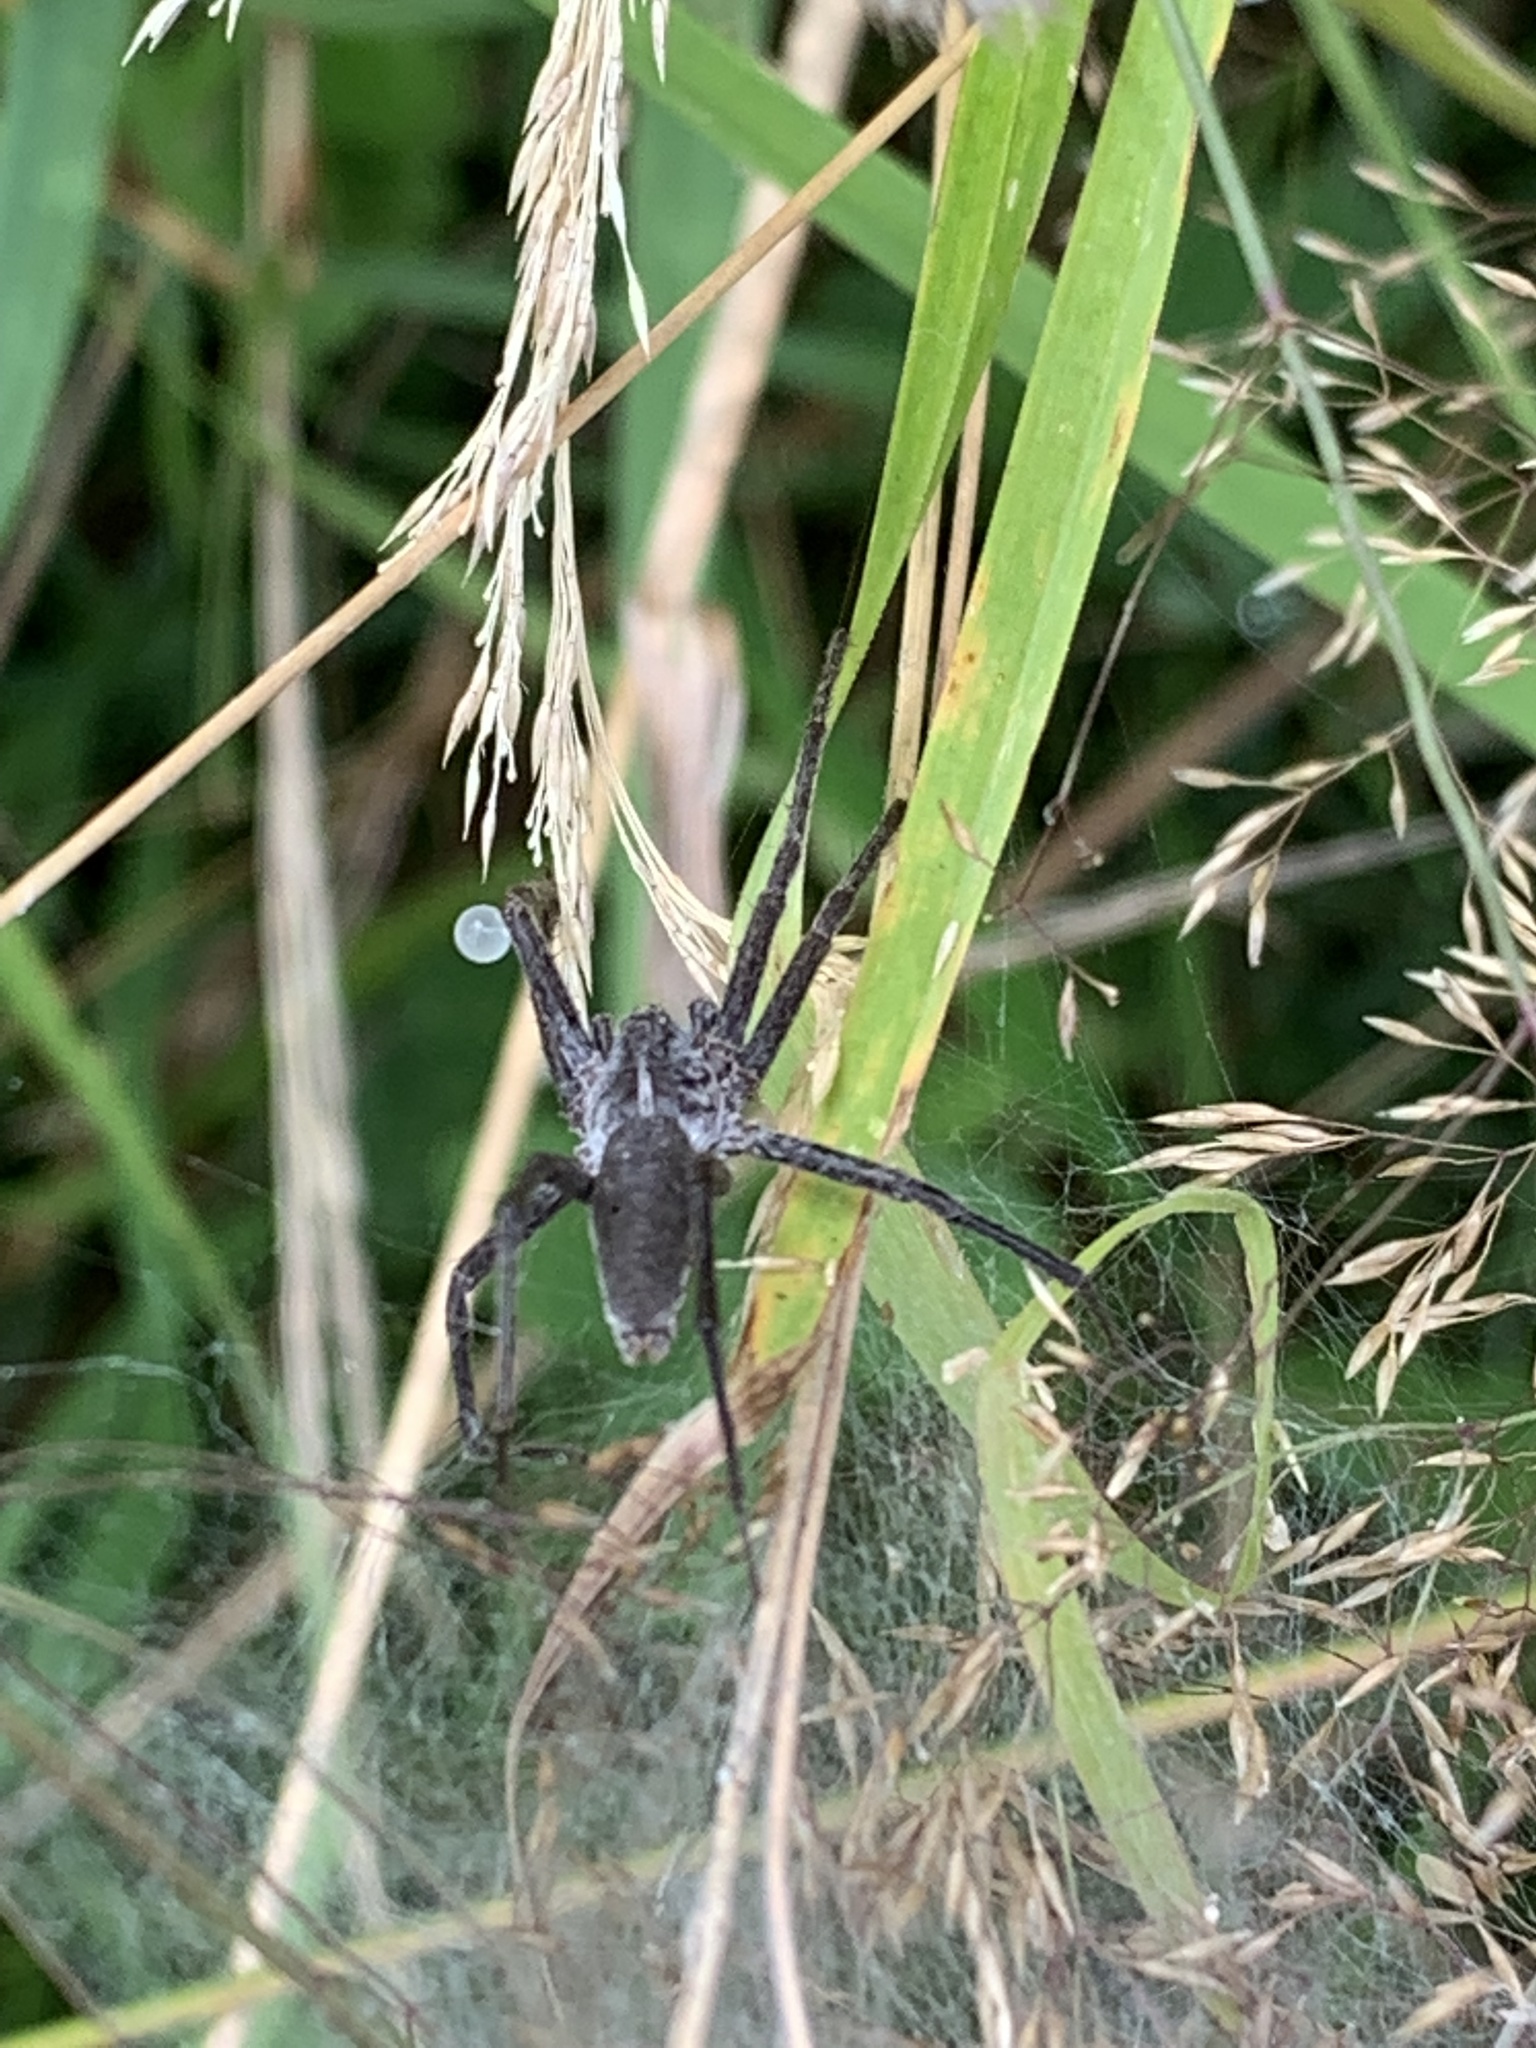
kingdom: Animalia
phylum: Arthropoda
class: Arachnida
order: Araneae
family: Pisauridae
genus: Pisaura
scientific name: Pisaura mirabilis
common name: Tent spider
